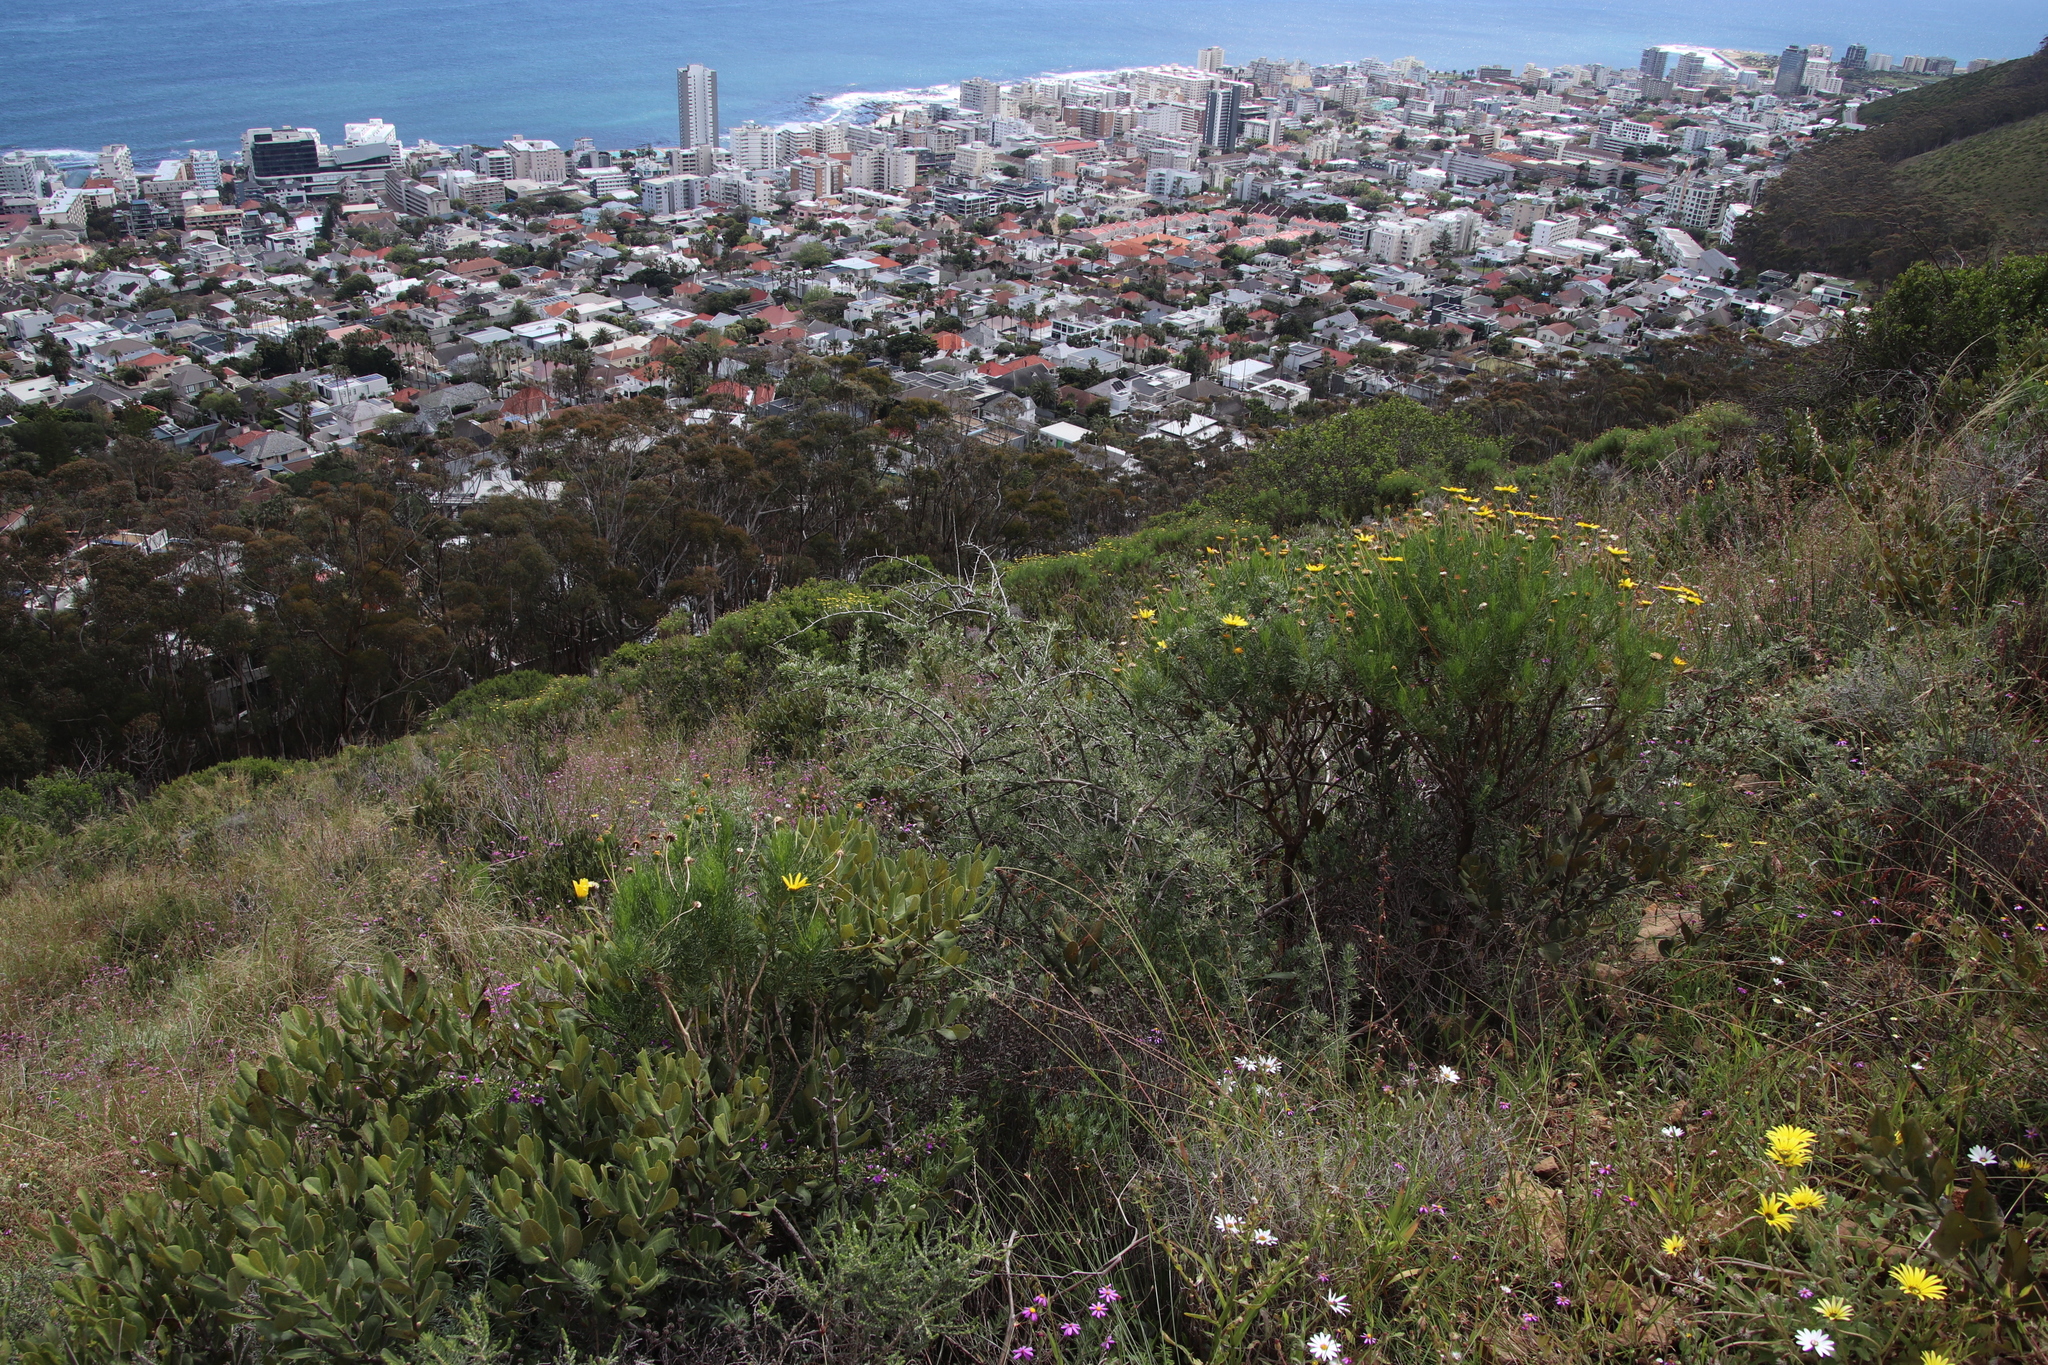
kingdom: Plantae
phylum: Tracheophyta
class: Magnoliopsida
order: Solanales
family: Solanaceae
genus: Lycium
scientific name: Lycium afrum
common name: Kaffir boxthorn
